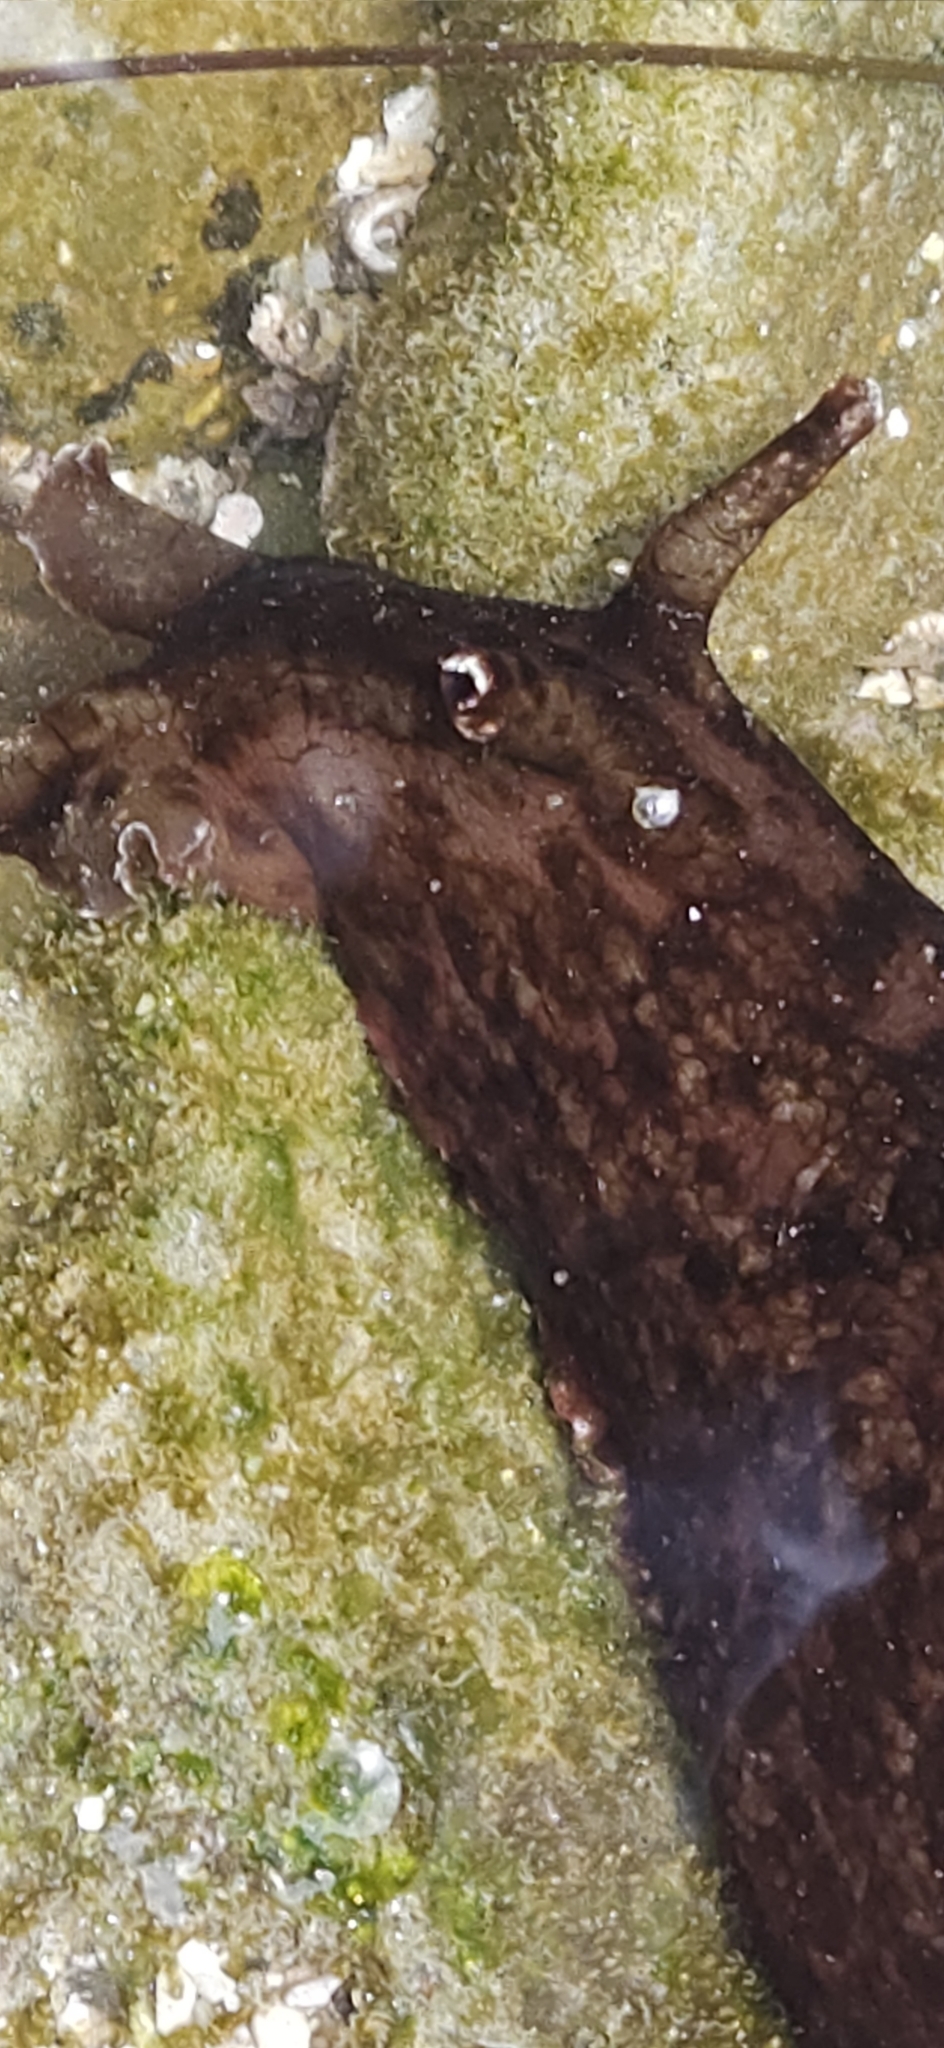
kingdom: Animalia
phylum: Mollusca
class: Gastropoda
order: Aplysiida
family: Aplysiidae
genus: Aplysia
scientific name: Aplysia californica
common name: California seahare
